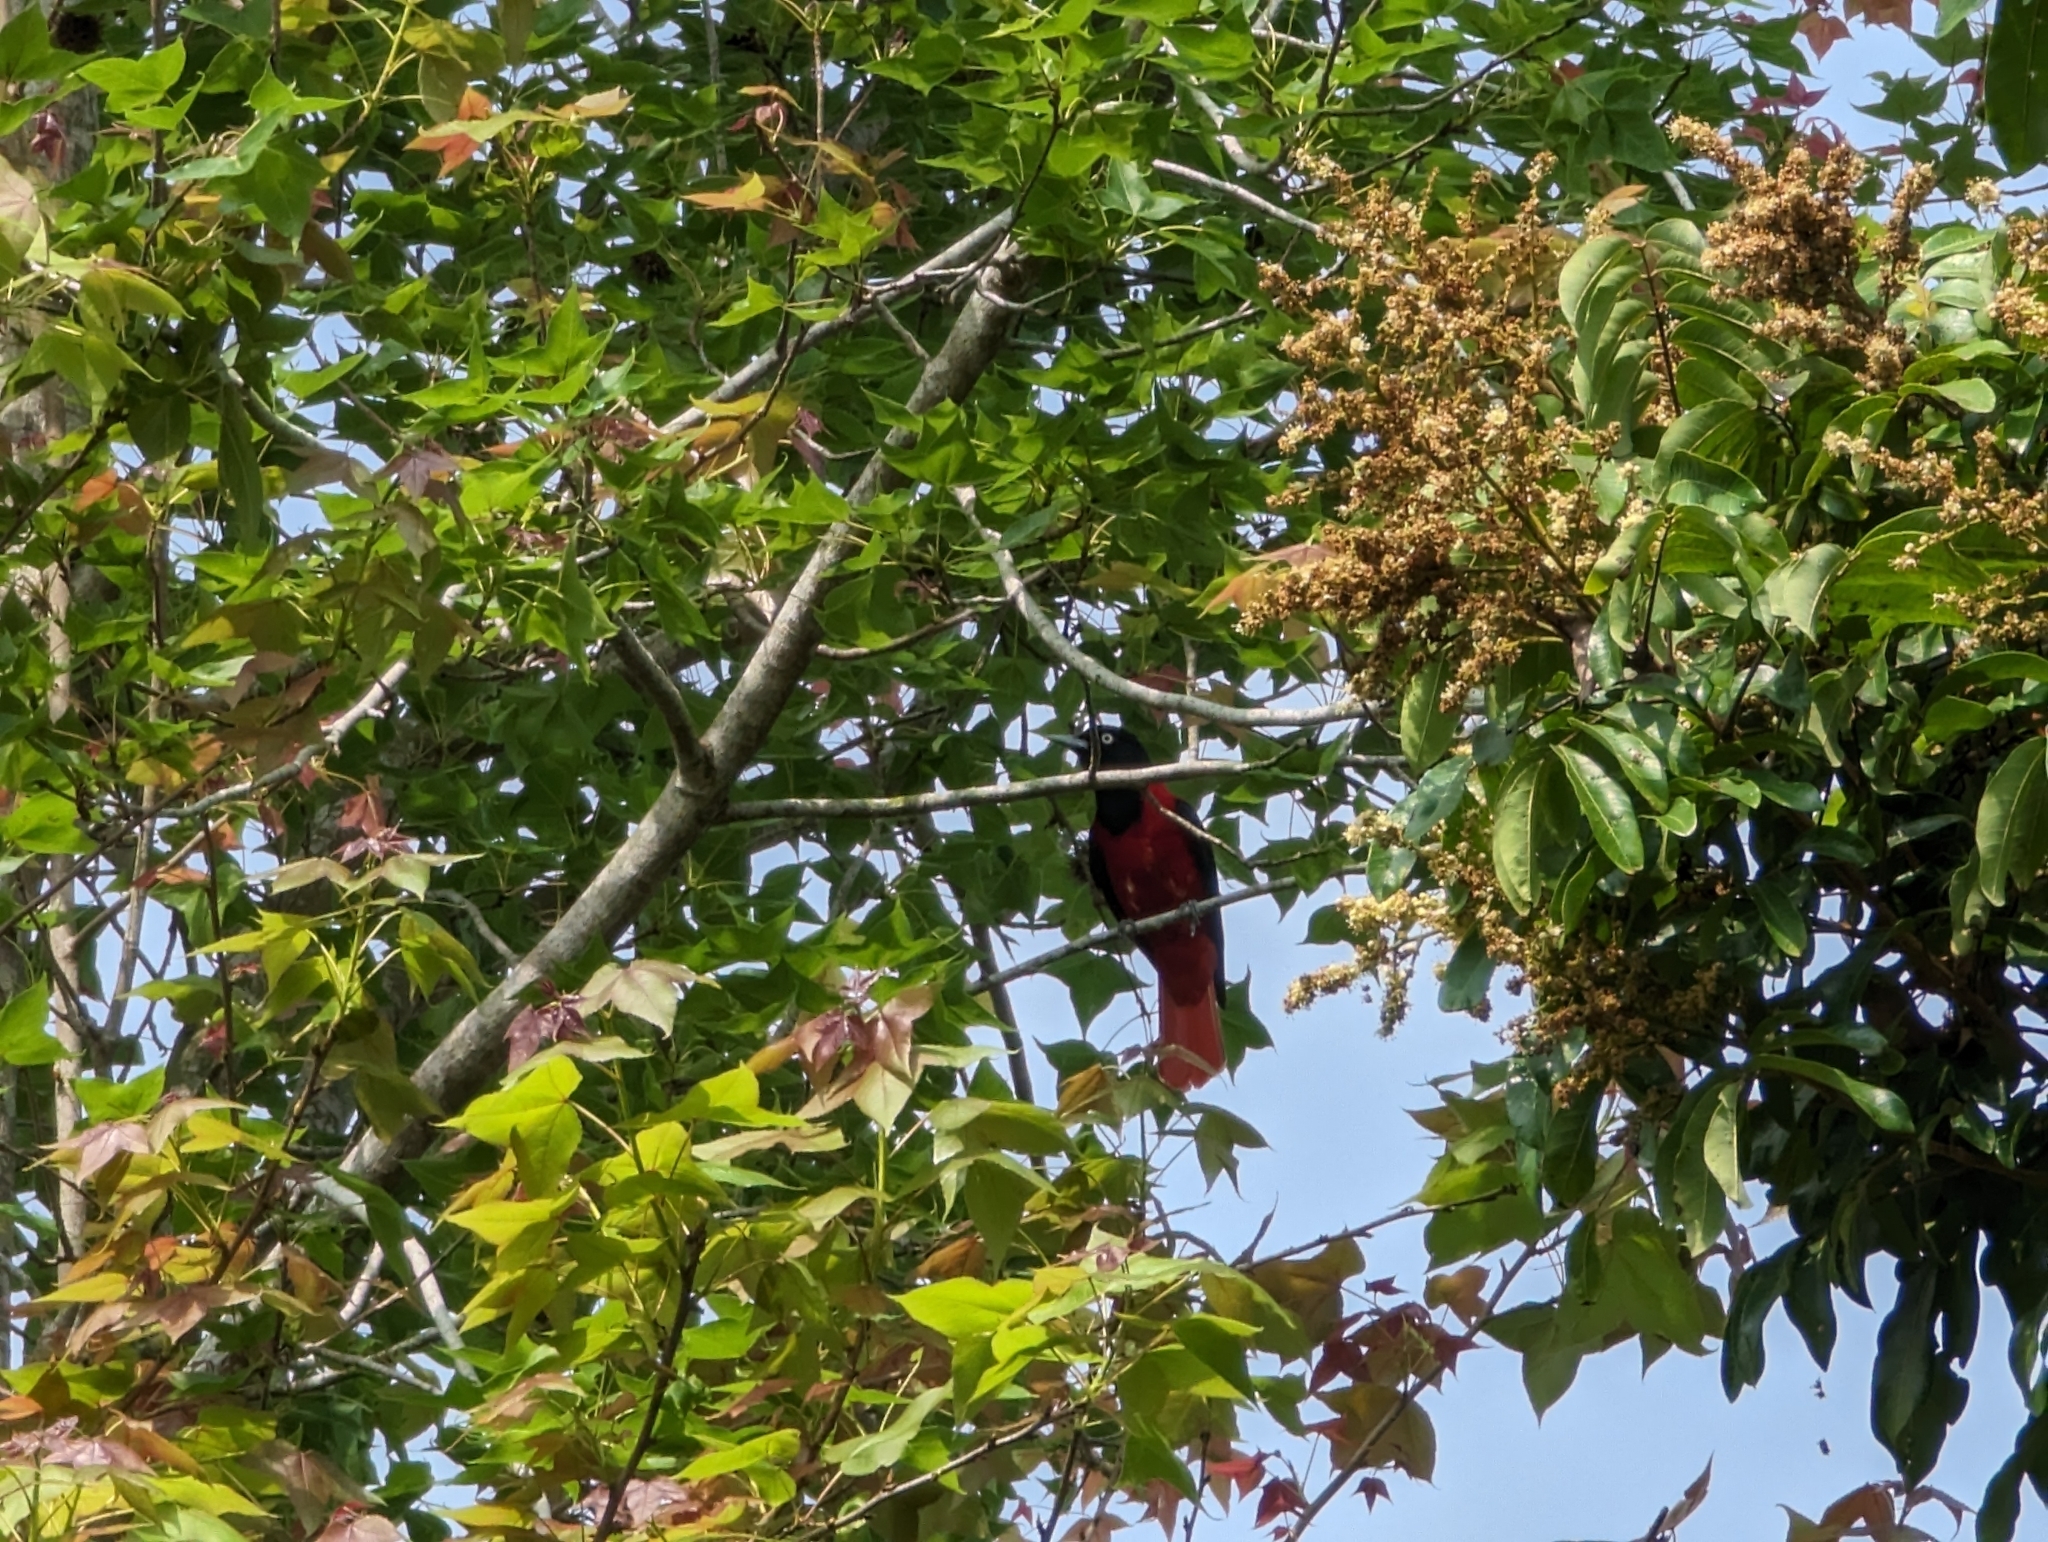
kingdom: Animalia
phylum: Chordata
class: Aves
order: Passeriformes
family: Oriolidae
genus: Oriolus
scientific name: Oriolus traillii
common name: Maroon oriole
